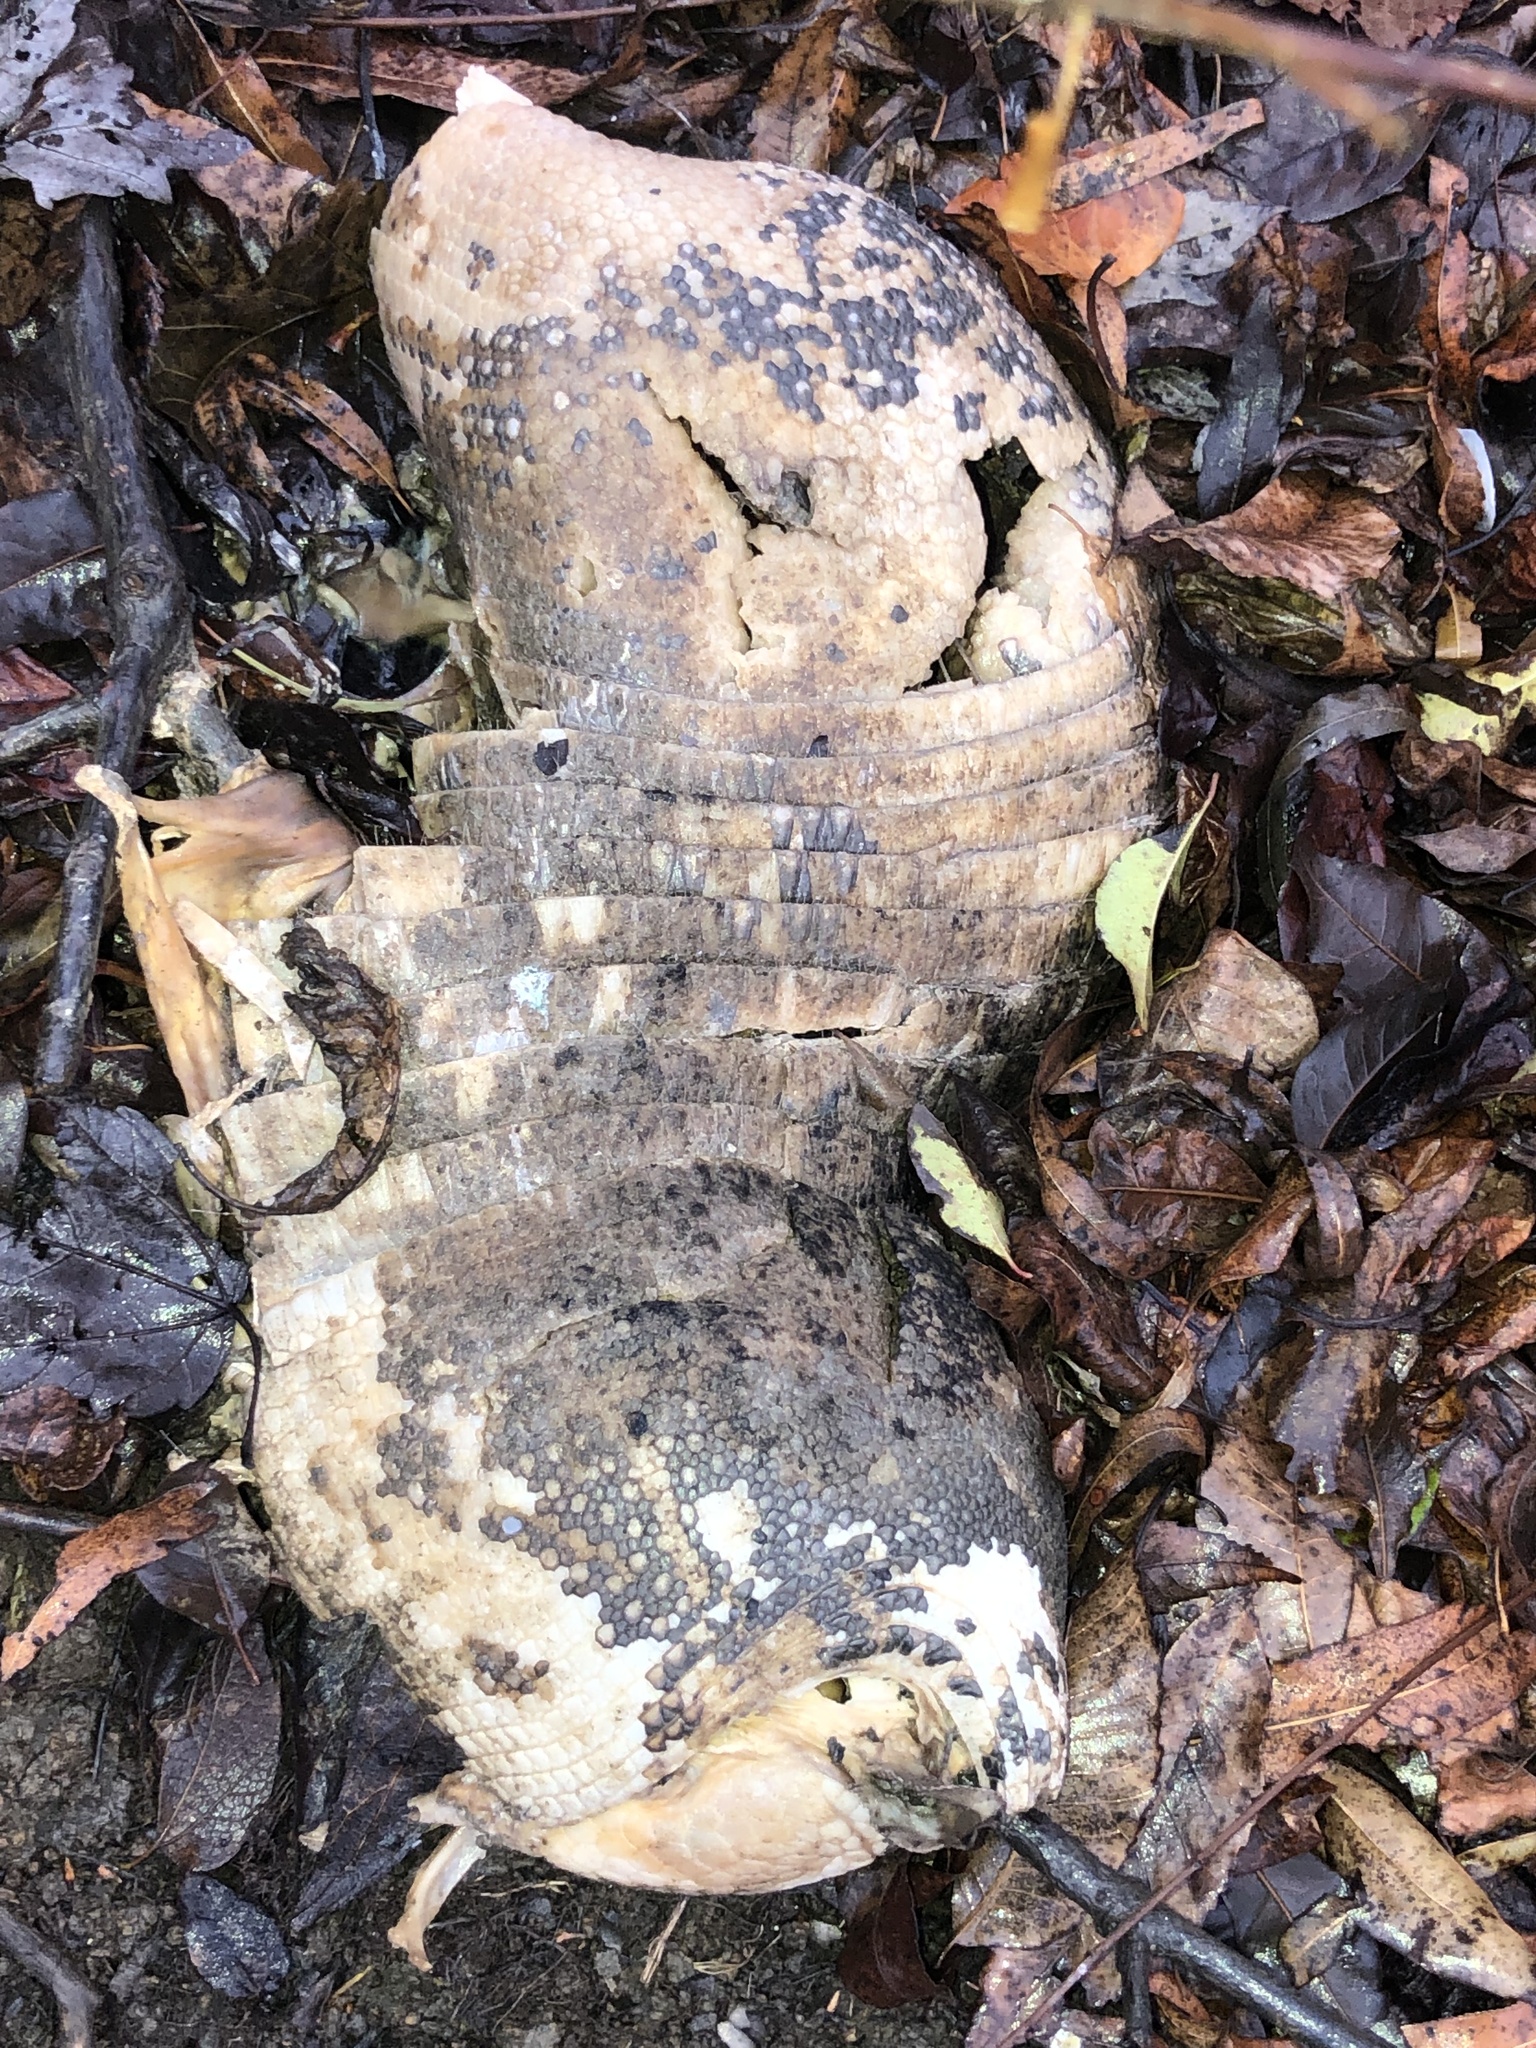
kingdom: Animalia
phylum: Chordata
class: Mammalia
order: Cingulata
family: Dasypodidae
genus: Dasypus
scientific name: Dasypus novemcinctus
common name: Nine-banded armadillo
